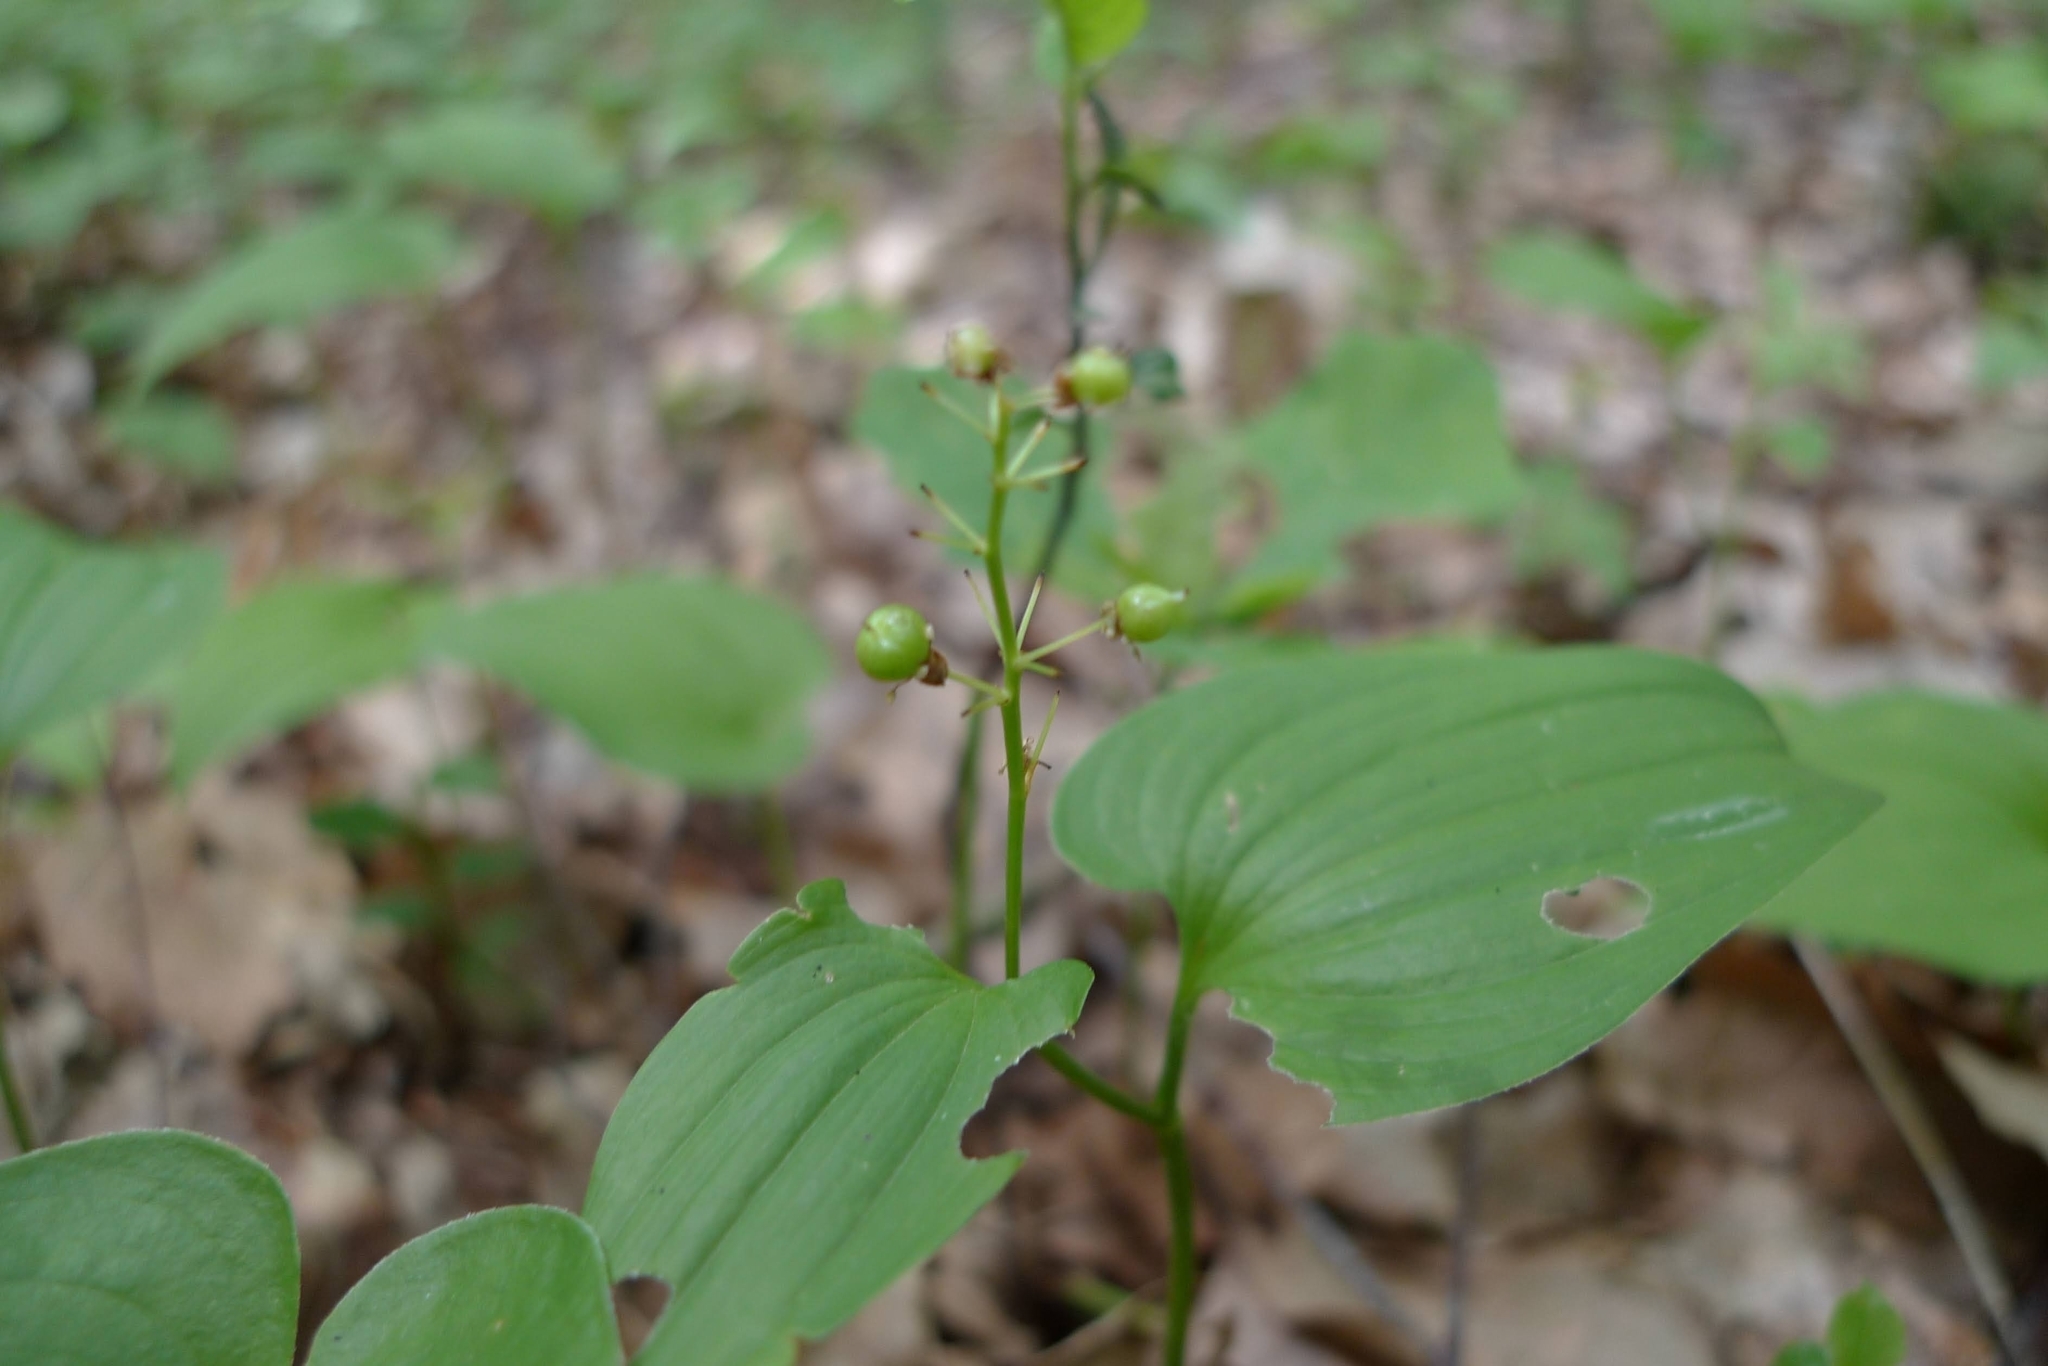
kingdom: Plantae
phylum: Tracheophyta
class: Liliopsida
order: Asparagales
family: Asparagaceae
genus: Maianthemum
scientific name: Maianthemum bifolium
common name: May lily
